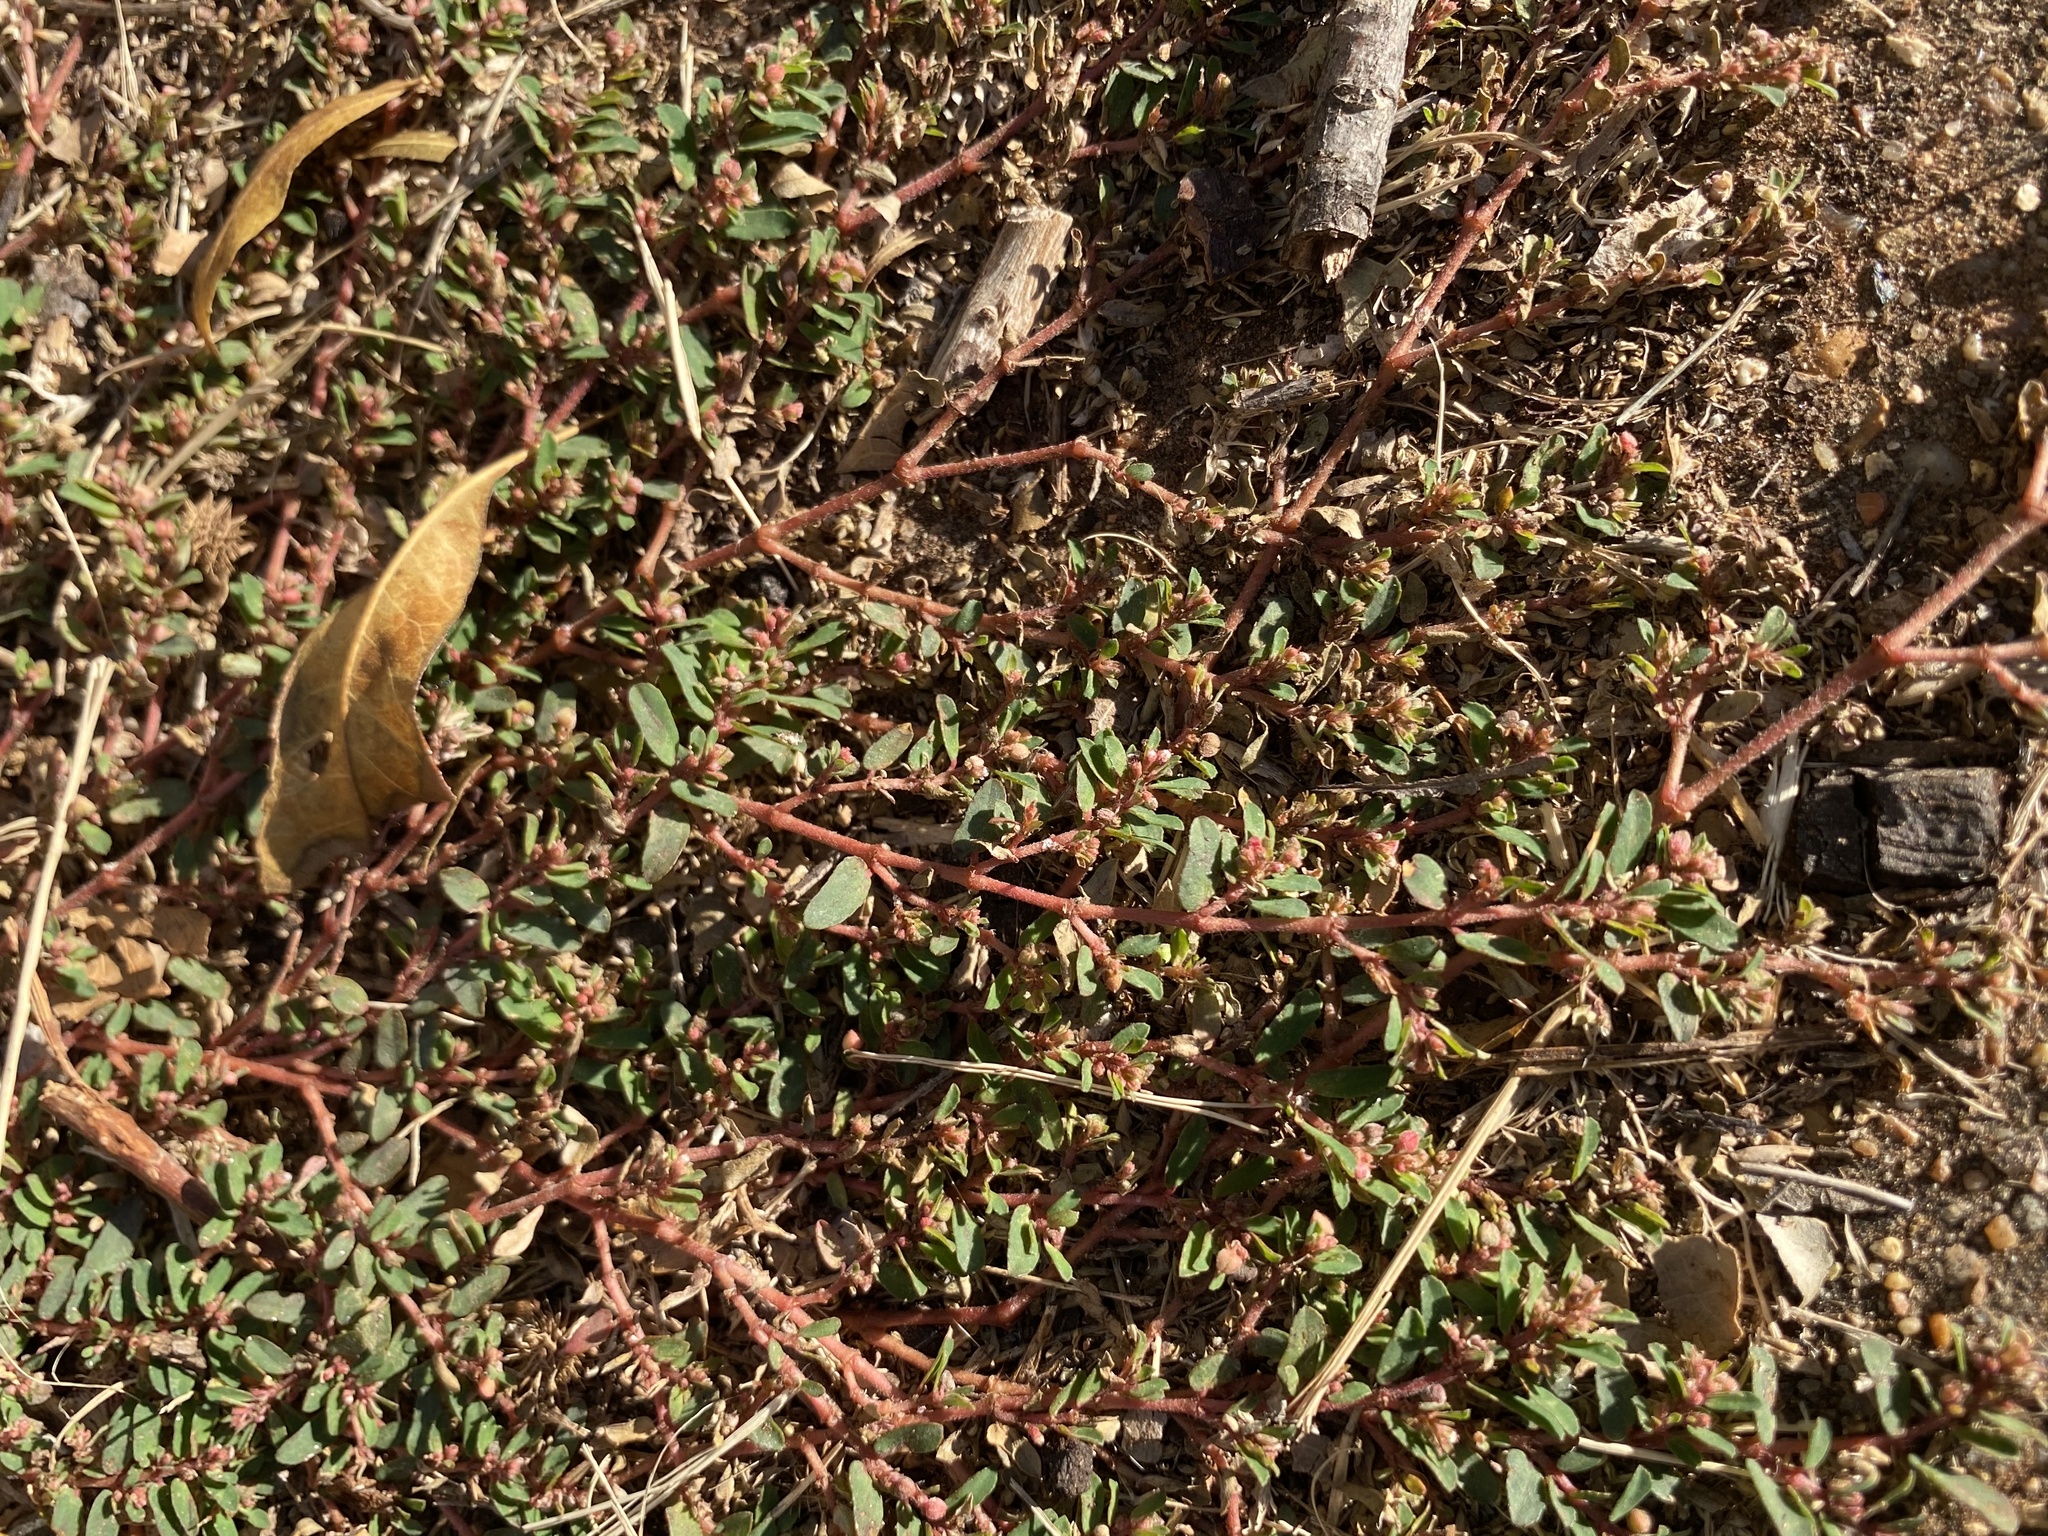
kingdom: Plantae
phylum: Tracheophyta
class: Magnoliopsida
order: Malpighiales
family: Euphorbiaceae
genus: Euphorbia
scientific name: Euphorbia maculata
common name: Spotted spurge
